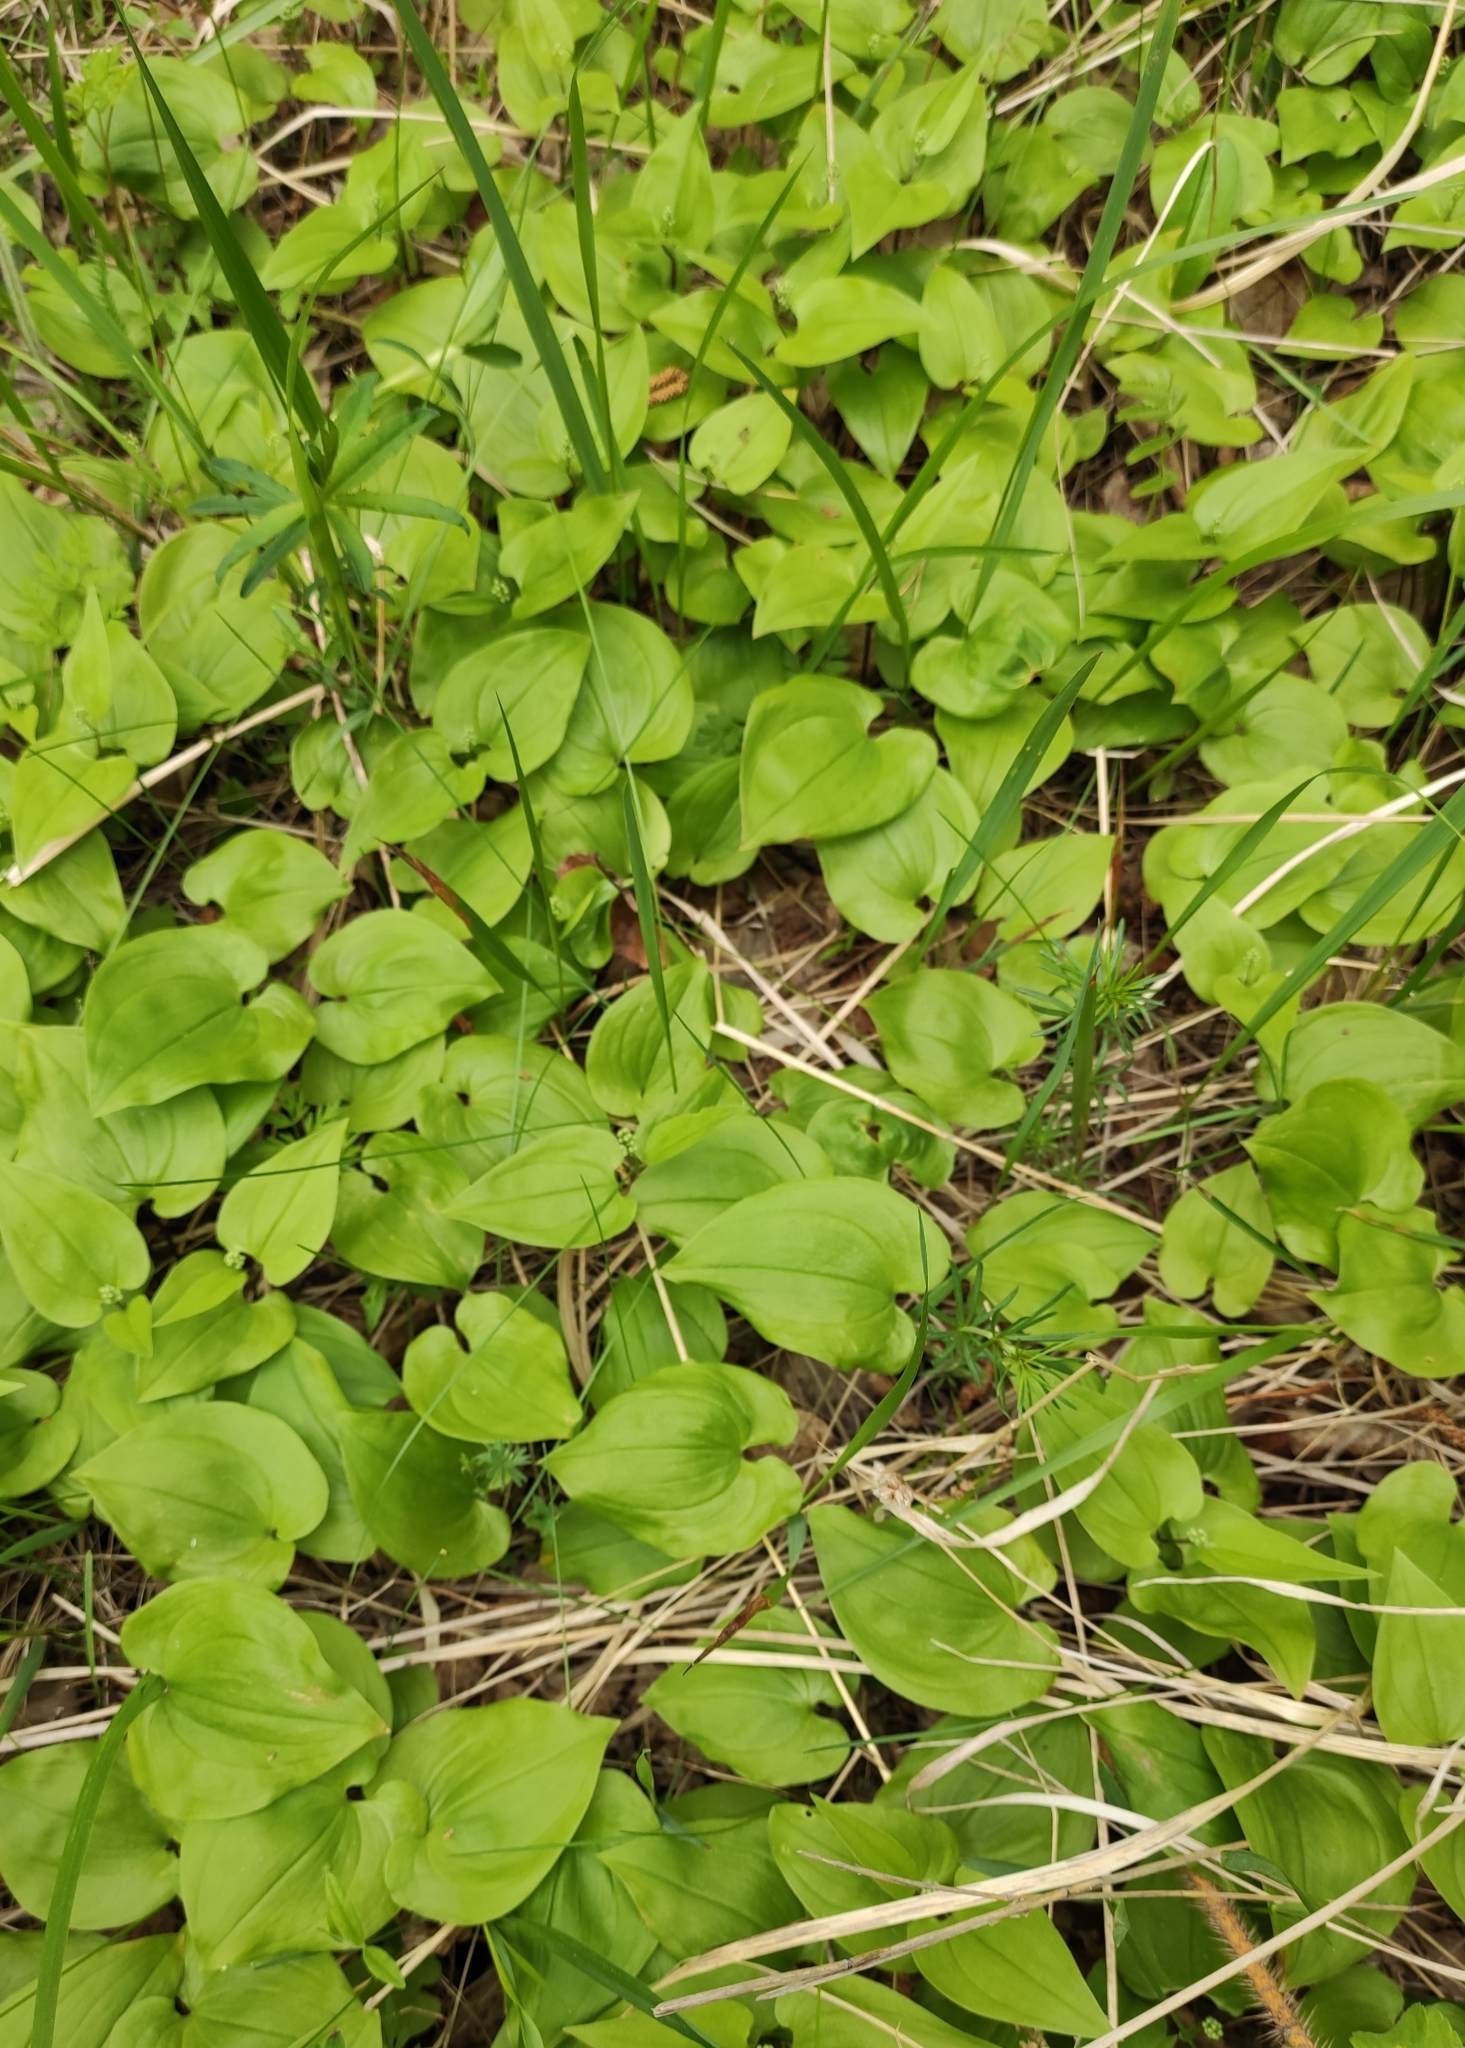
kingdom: Plantae
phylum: Tracheophyta
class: Liliopsida
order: Asparagales
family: Asparagaceae
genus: Maianthemum
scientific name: Maianthemum bifolium
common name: May lily
